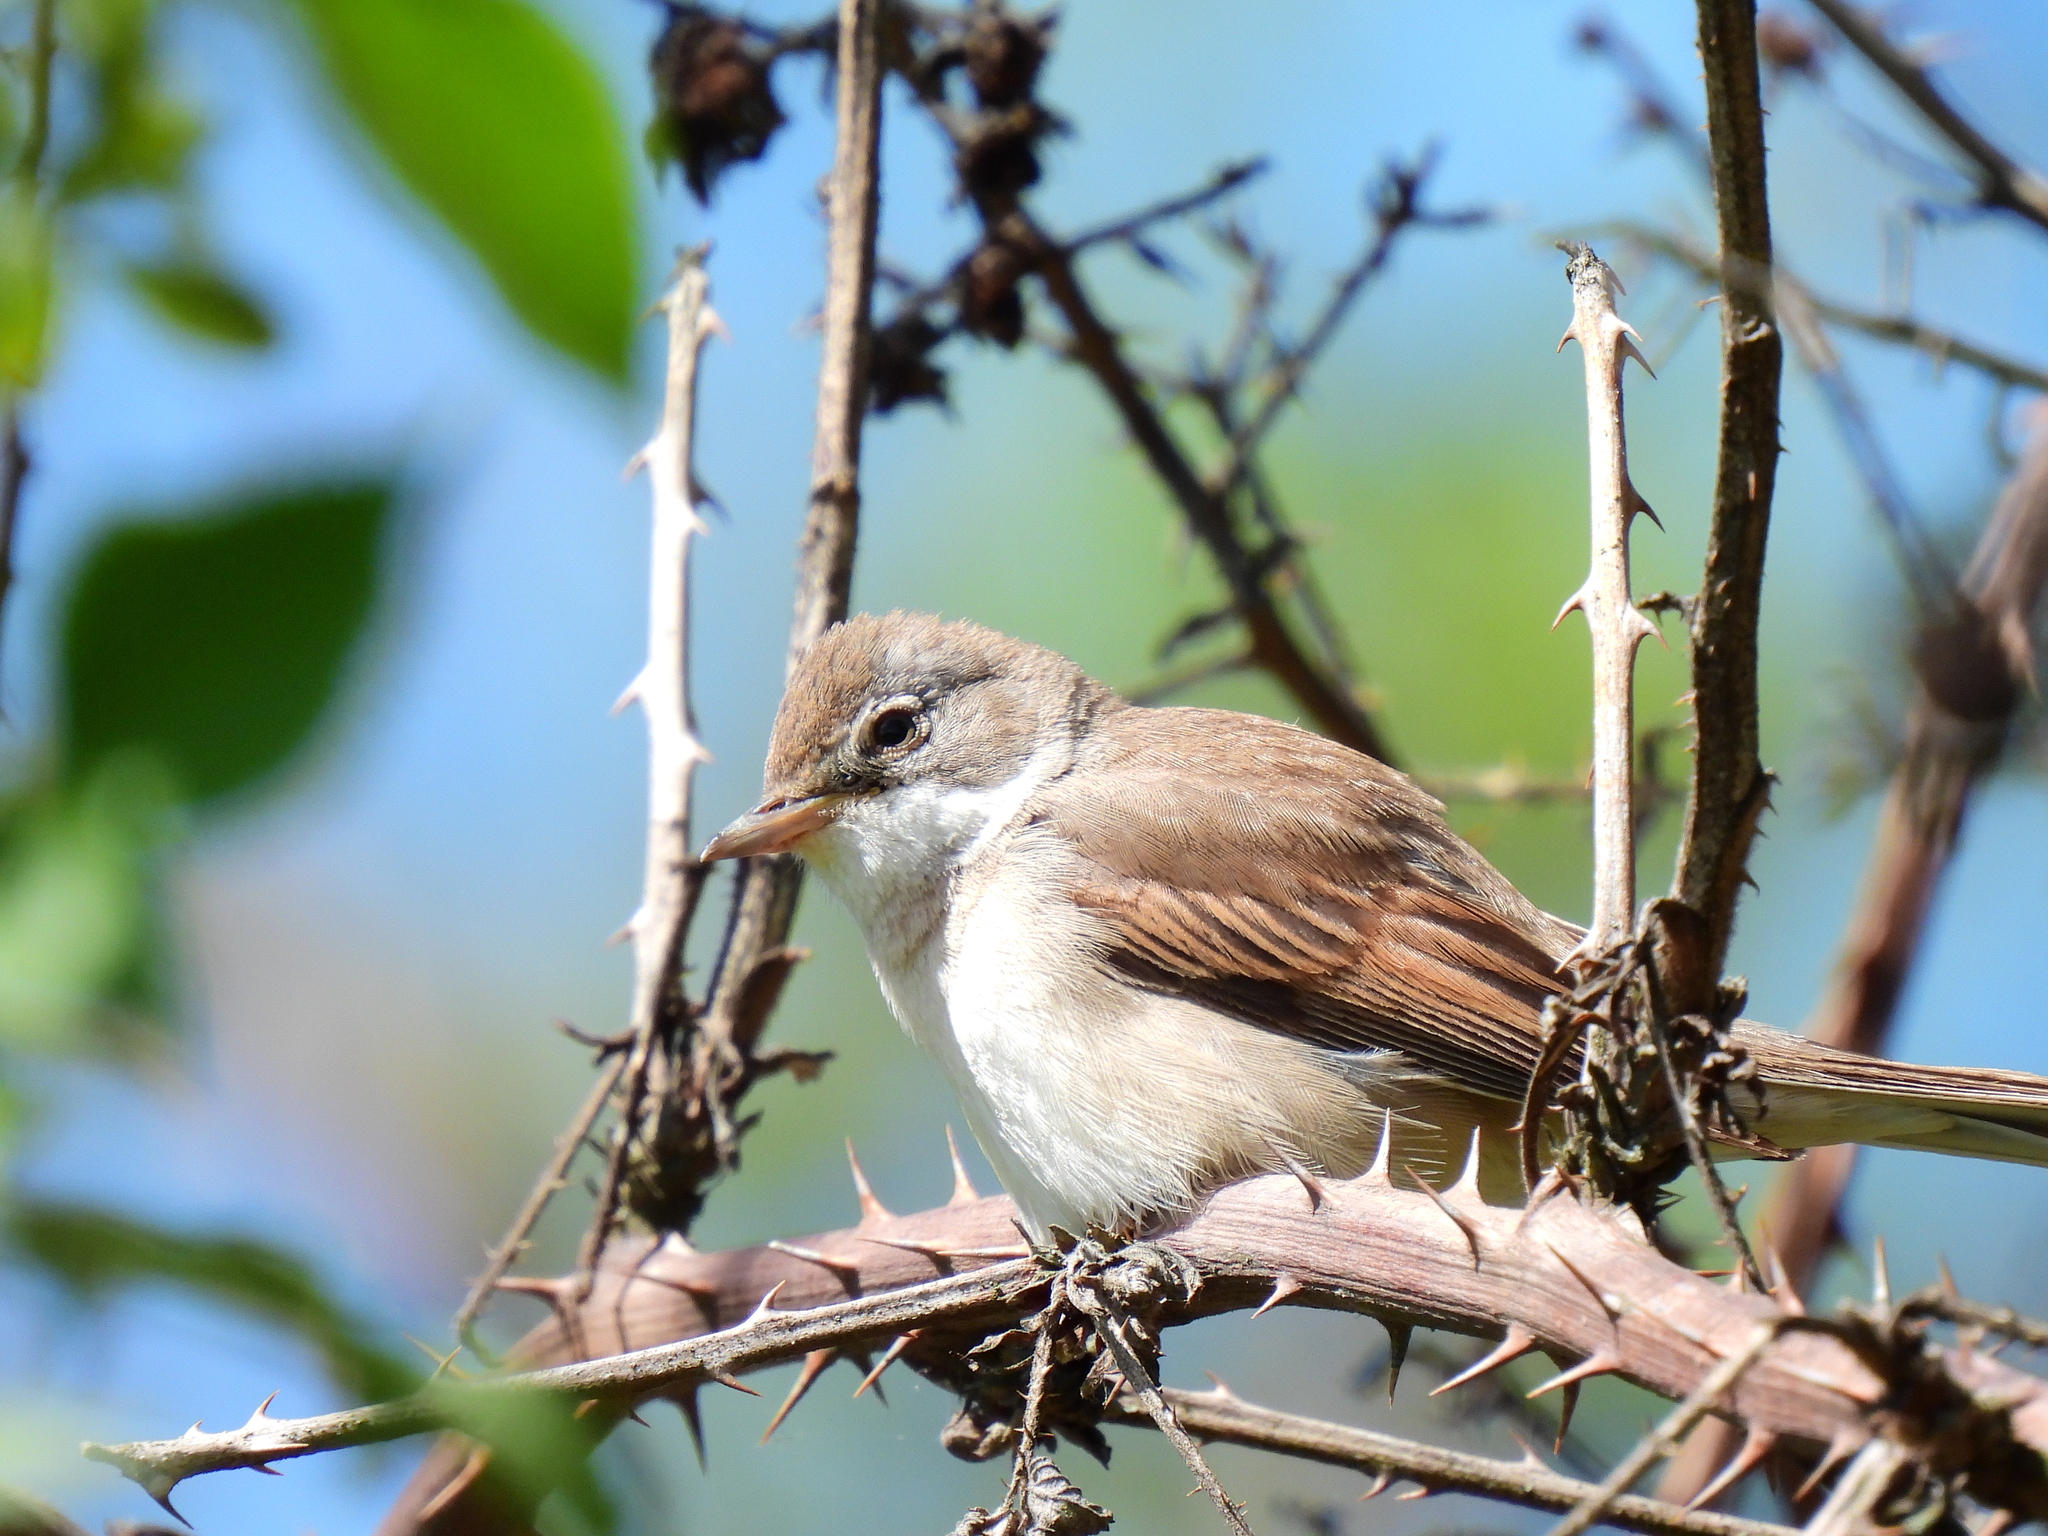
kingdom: Animalia
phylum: Chordata
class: Aves
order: Passeriformes
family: Sylviidae
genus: Sylvia
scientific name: Sylvia communis
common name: Common whitethroat
